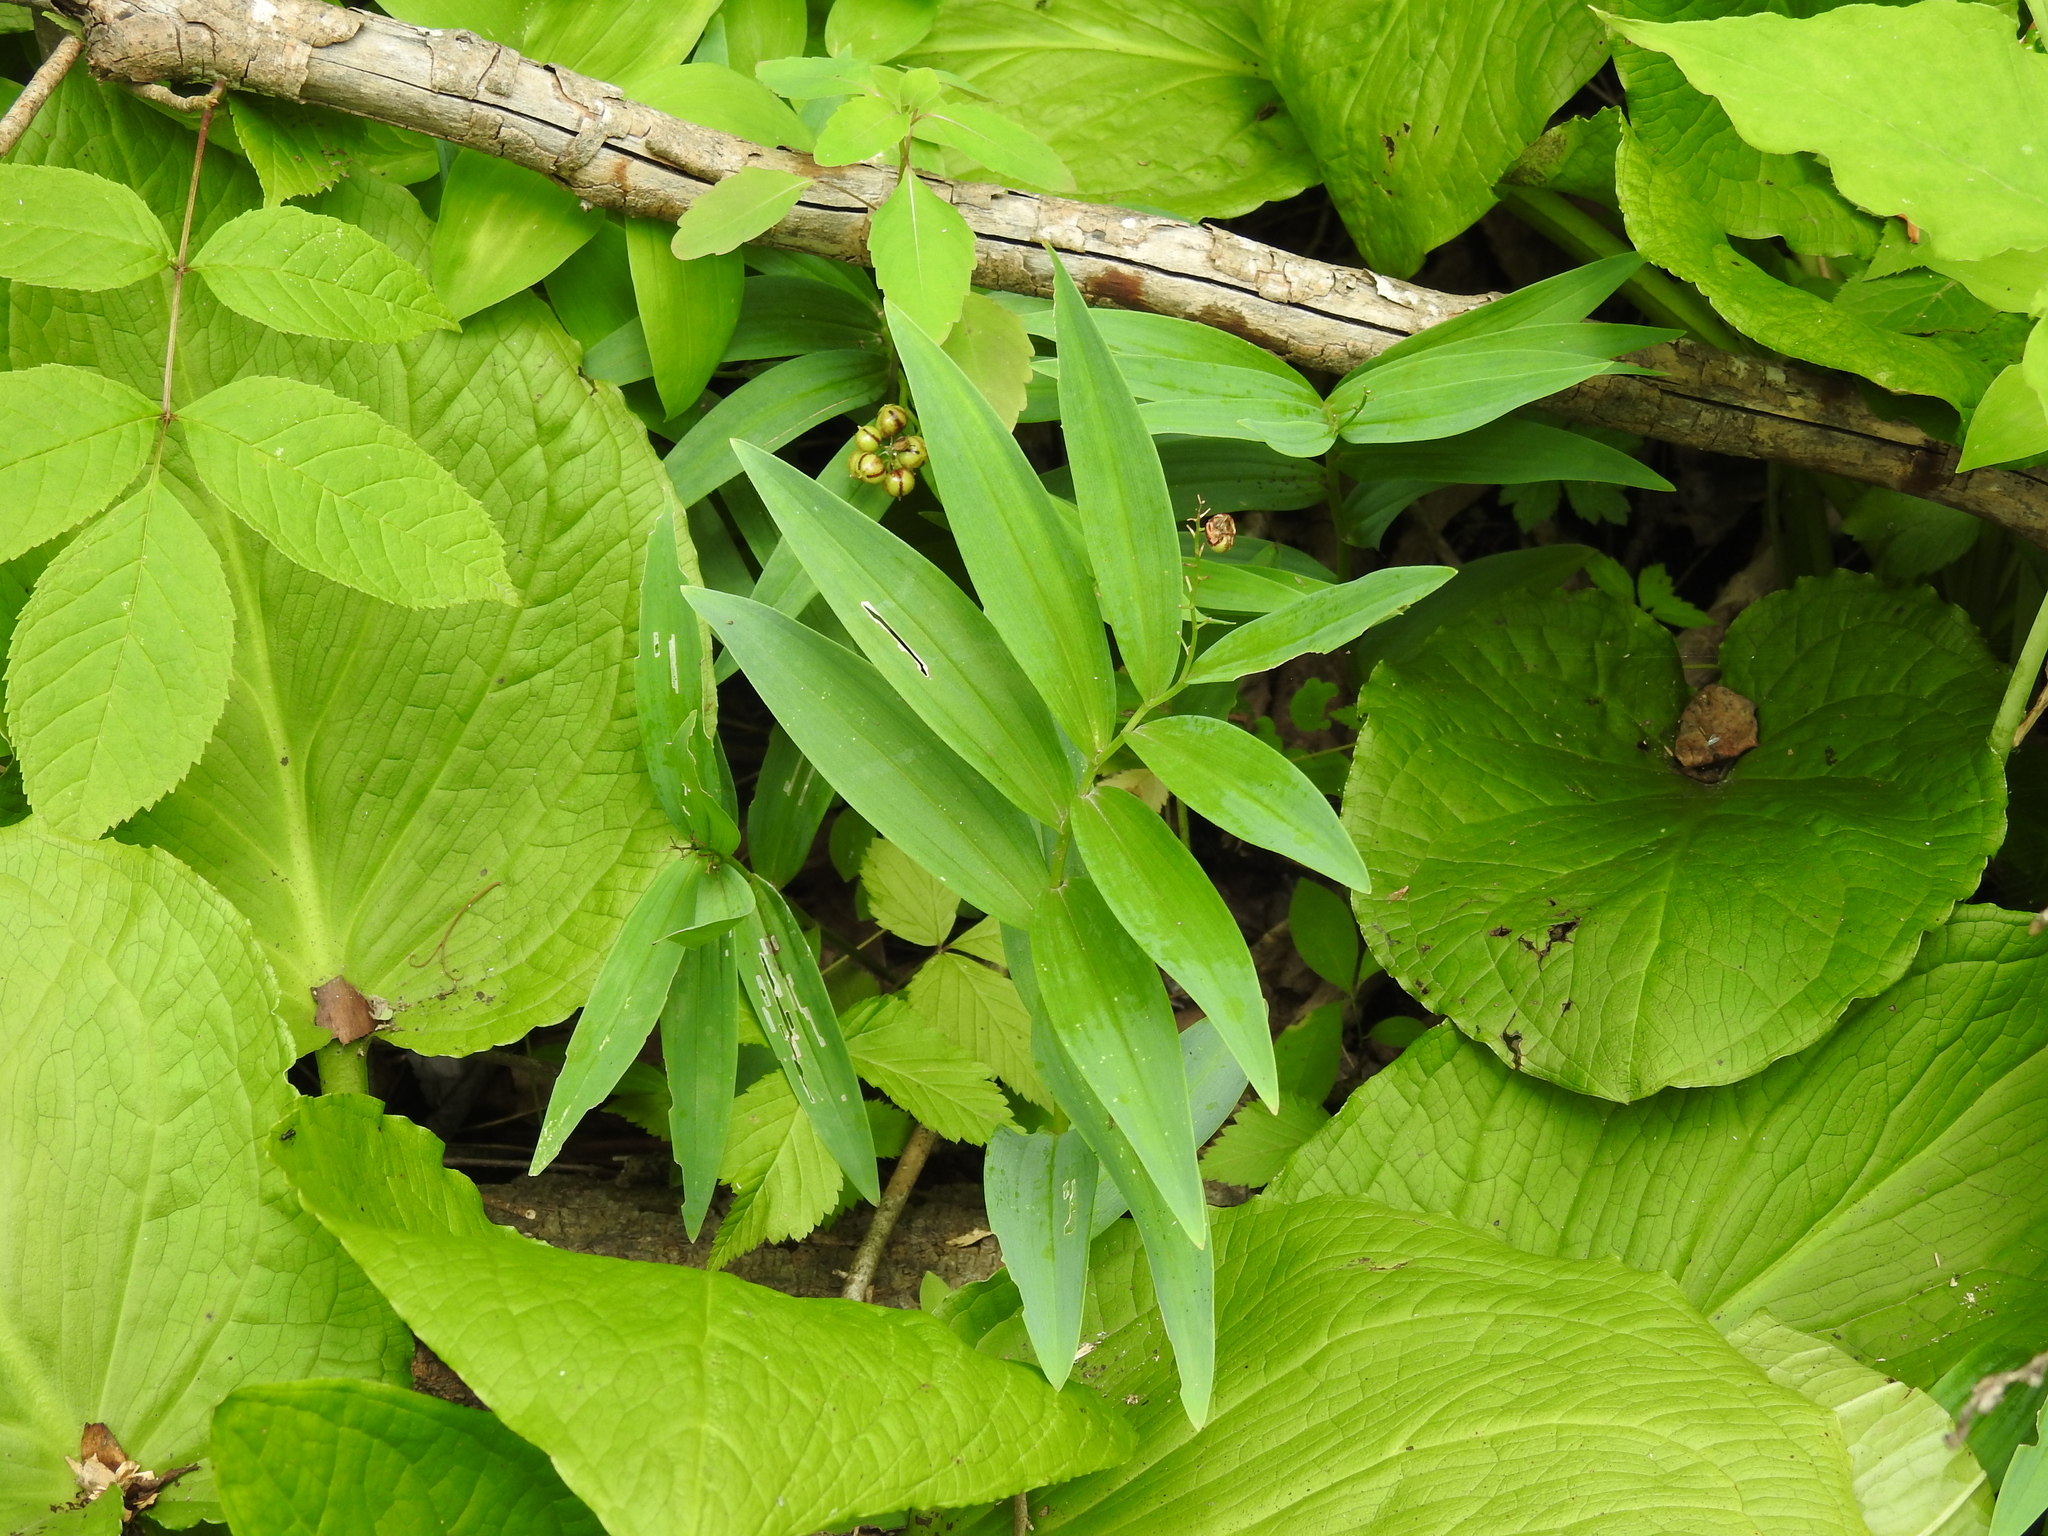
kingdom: Plantae
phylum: Tracheophyta
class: Liliopsida
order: Asparagales
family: Asparagaceae
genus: Maianthemum
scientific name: Maianthemum stellatum
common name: Little false solomon's seal
